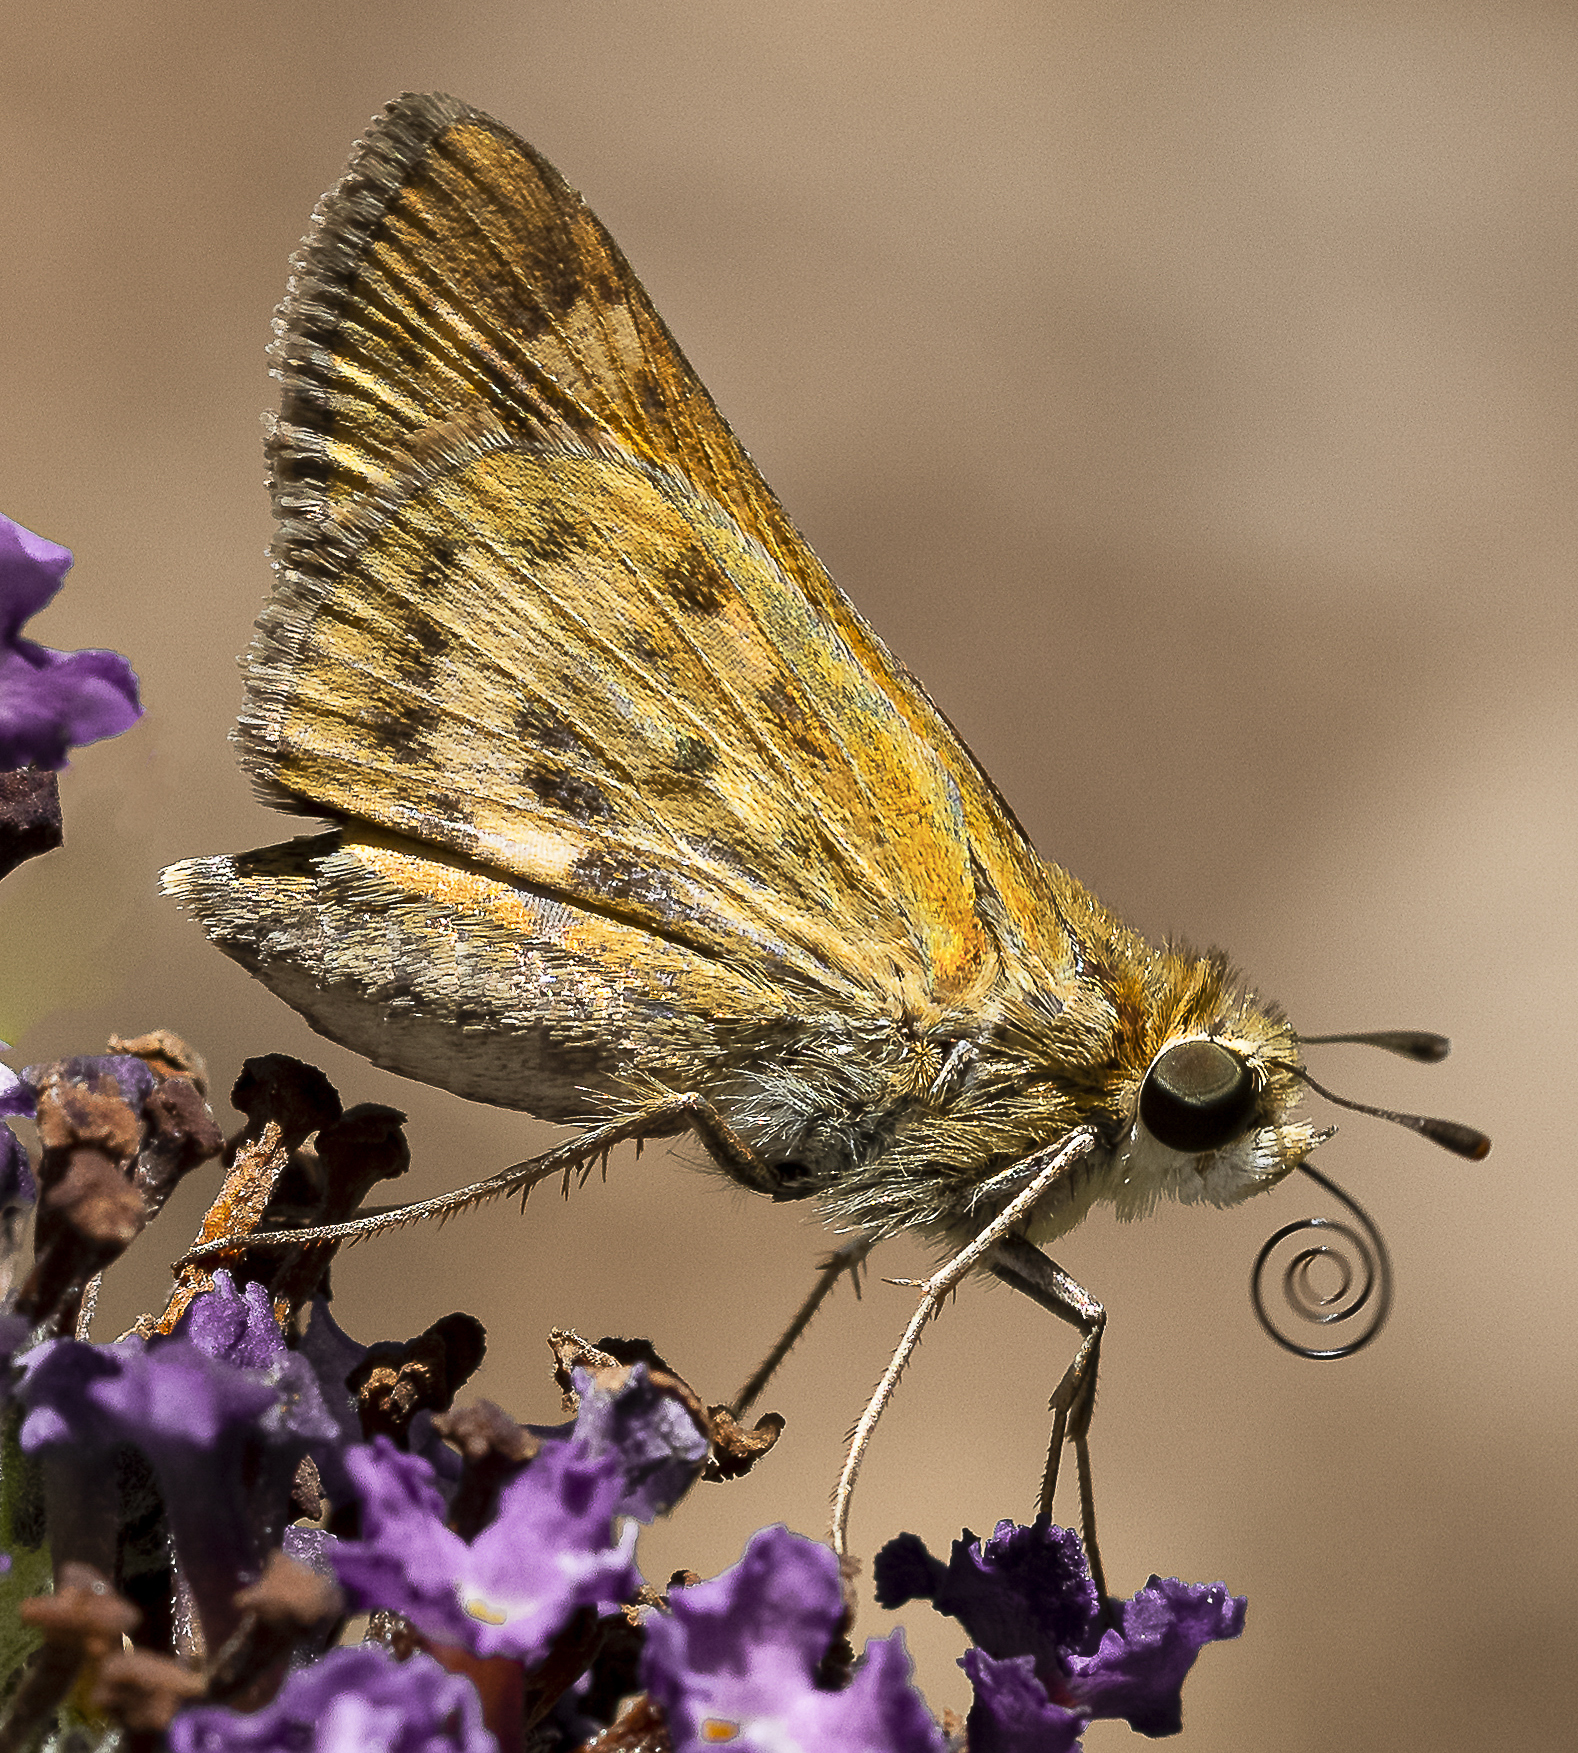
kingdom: Animalia
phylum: Arthropoda
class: Insecta
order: Lepidoptera
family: Hesperiidae
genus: Hylephila
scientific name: Hylephila phyleus
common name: Fiery skipper
